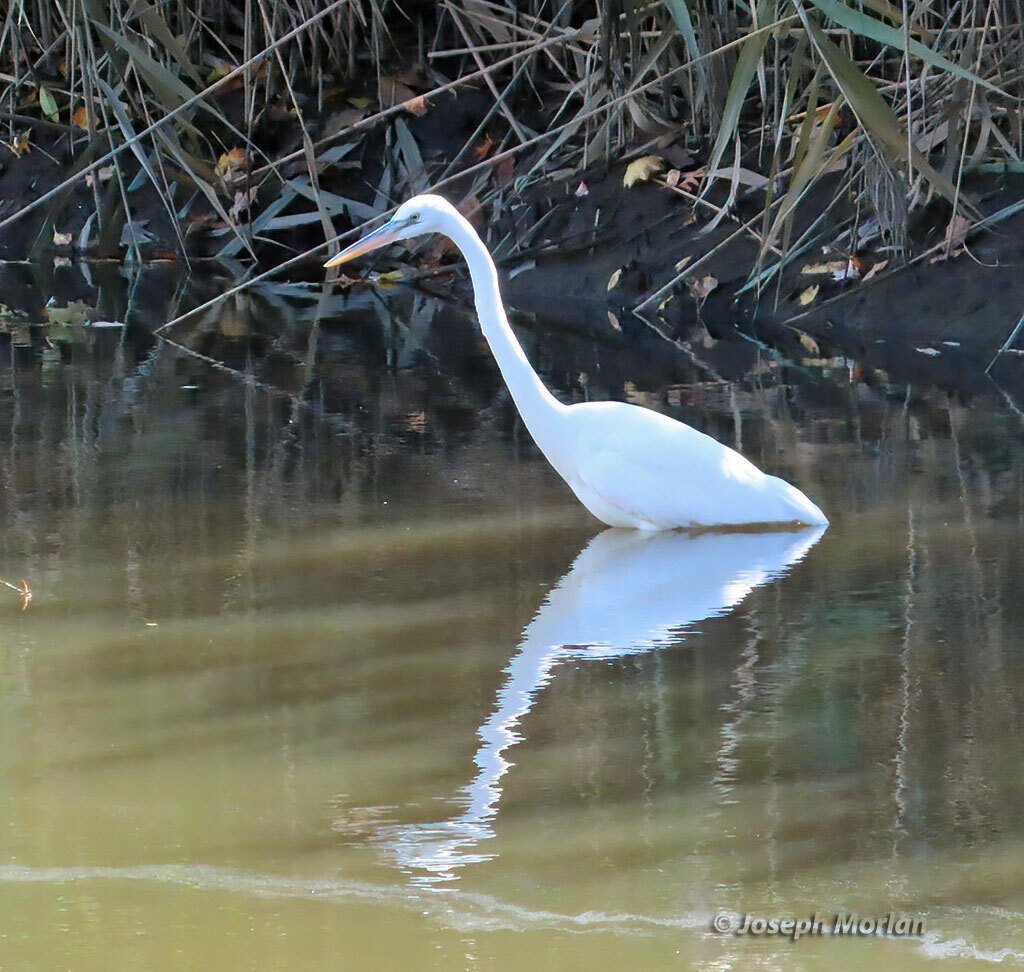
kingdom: Animalia
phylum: Chordata
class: Aves
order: Pelecaniformes
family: Ardeidae
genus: Ardea
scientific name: Ardea herodias
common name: Great blue heron
